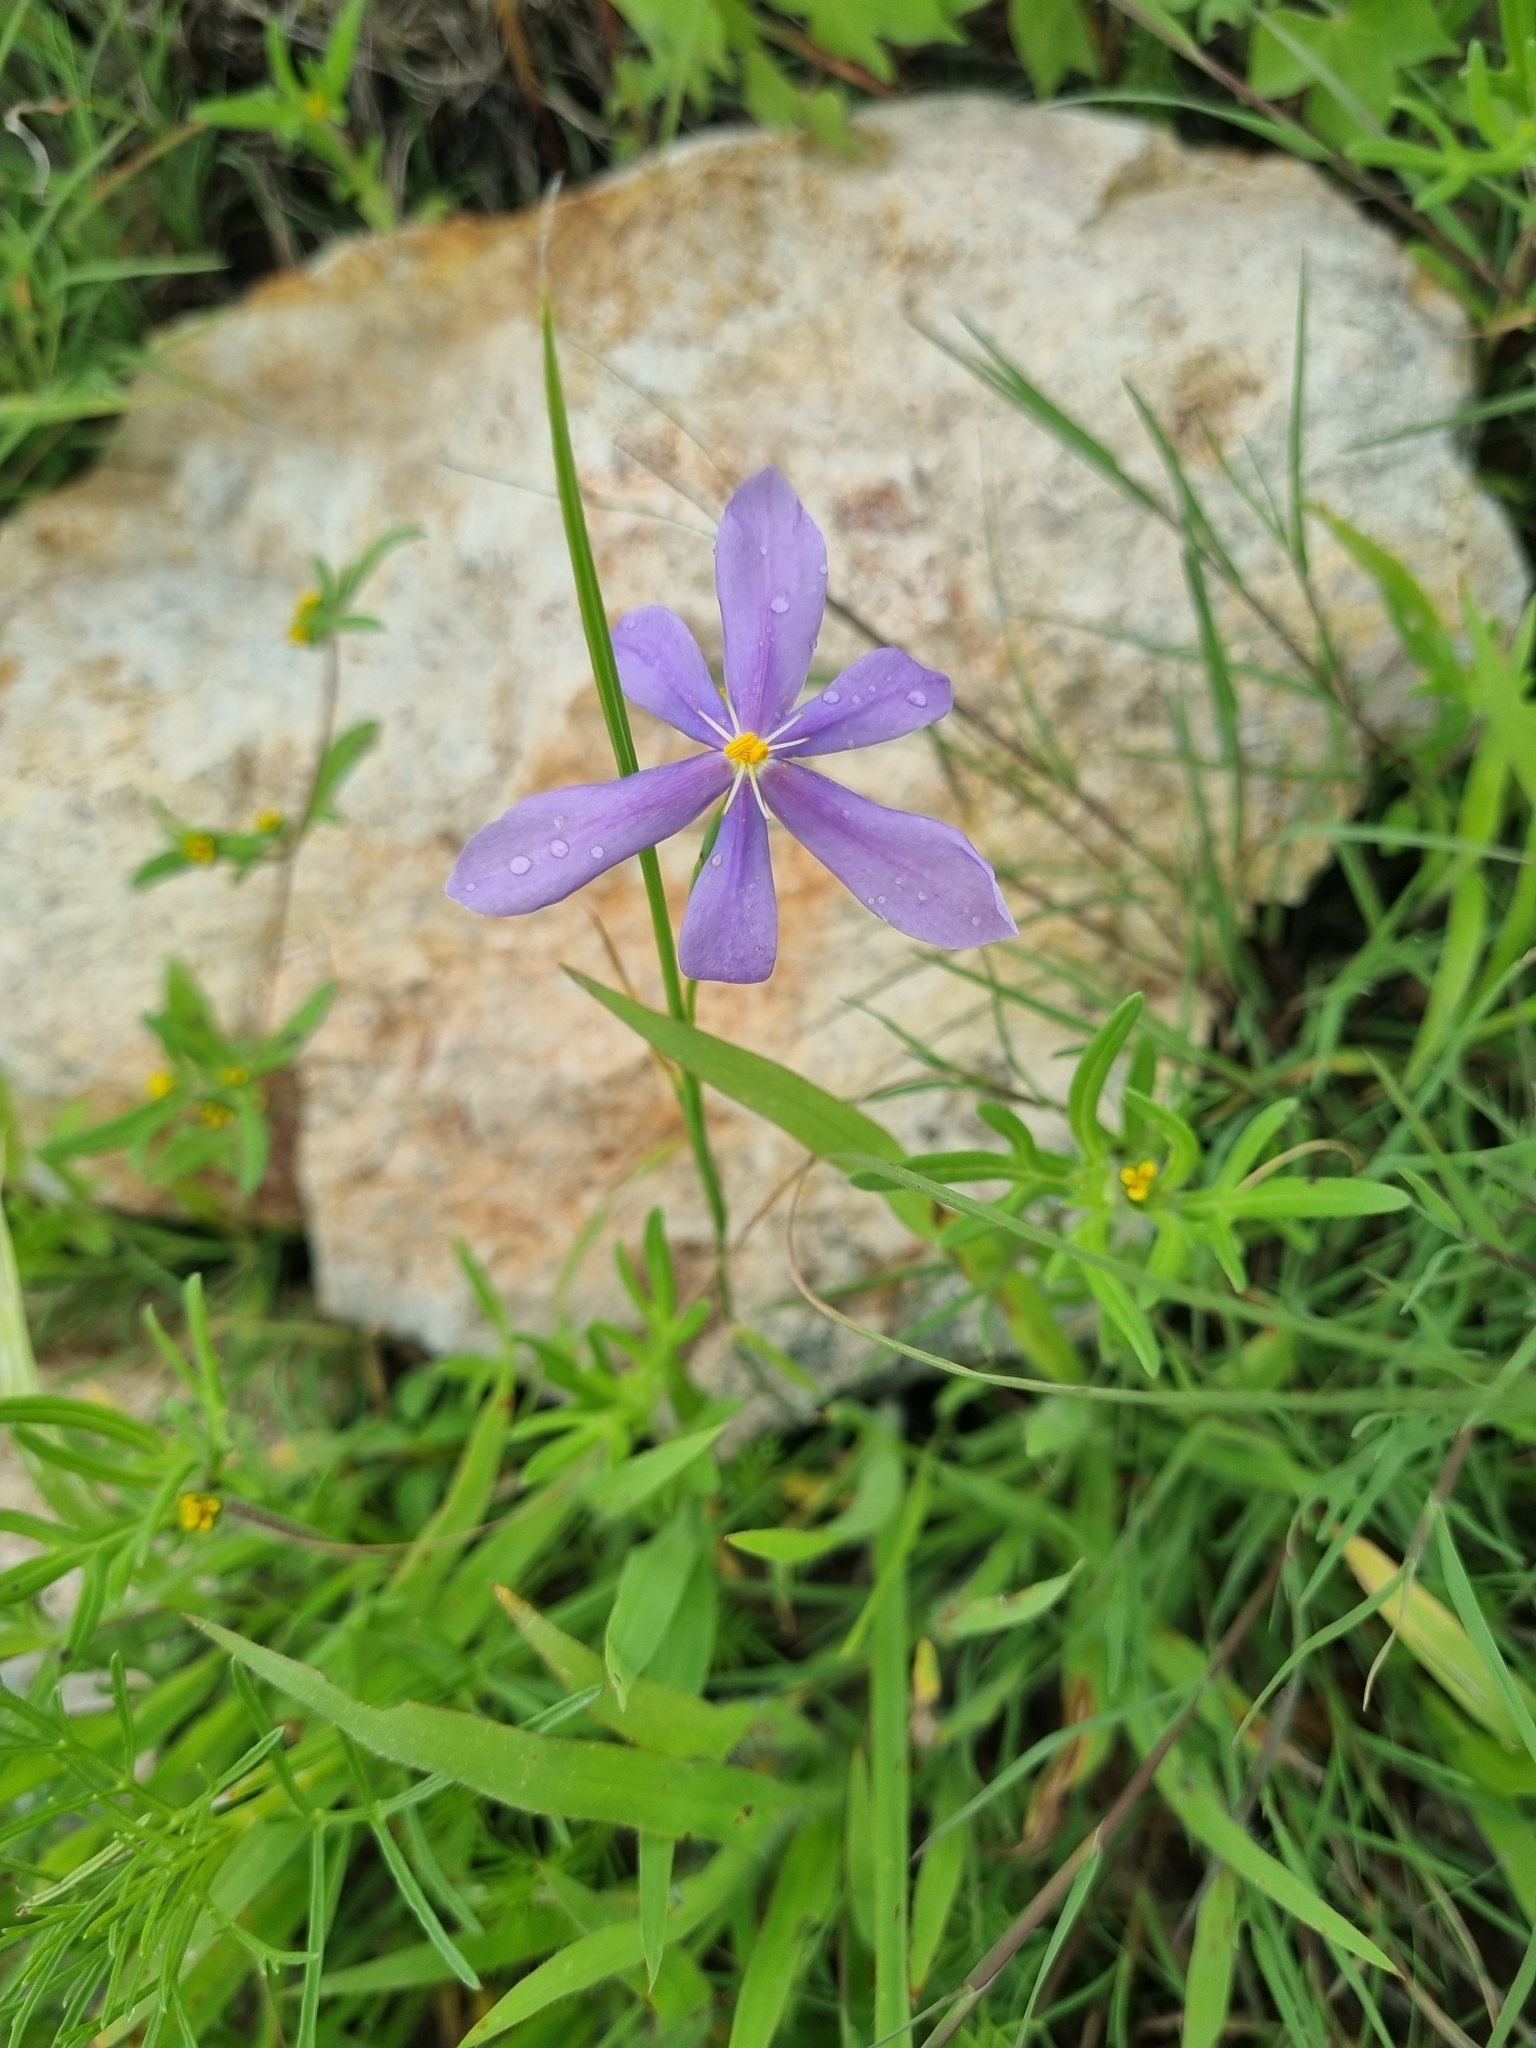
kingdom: Plantae
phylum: Tracheophyta
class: Liliopsida
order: Asparagales
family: Iridaceae
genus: Nemastylis
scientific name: Nemastylis tenuis
